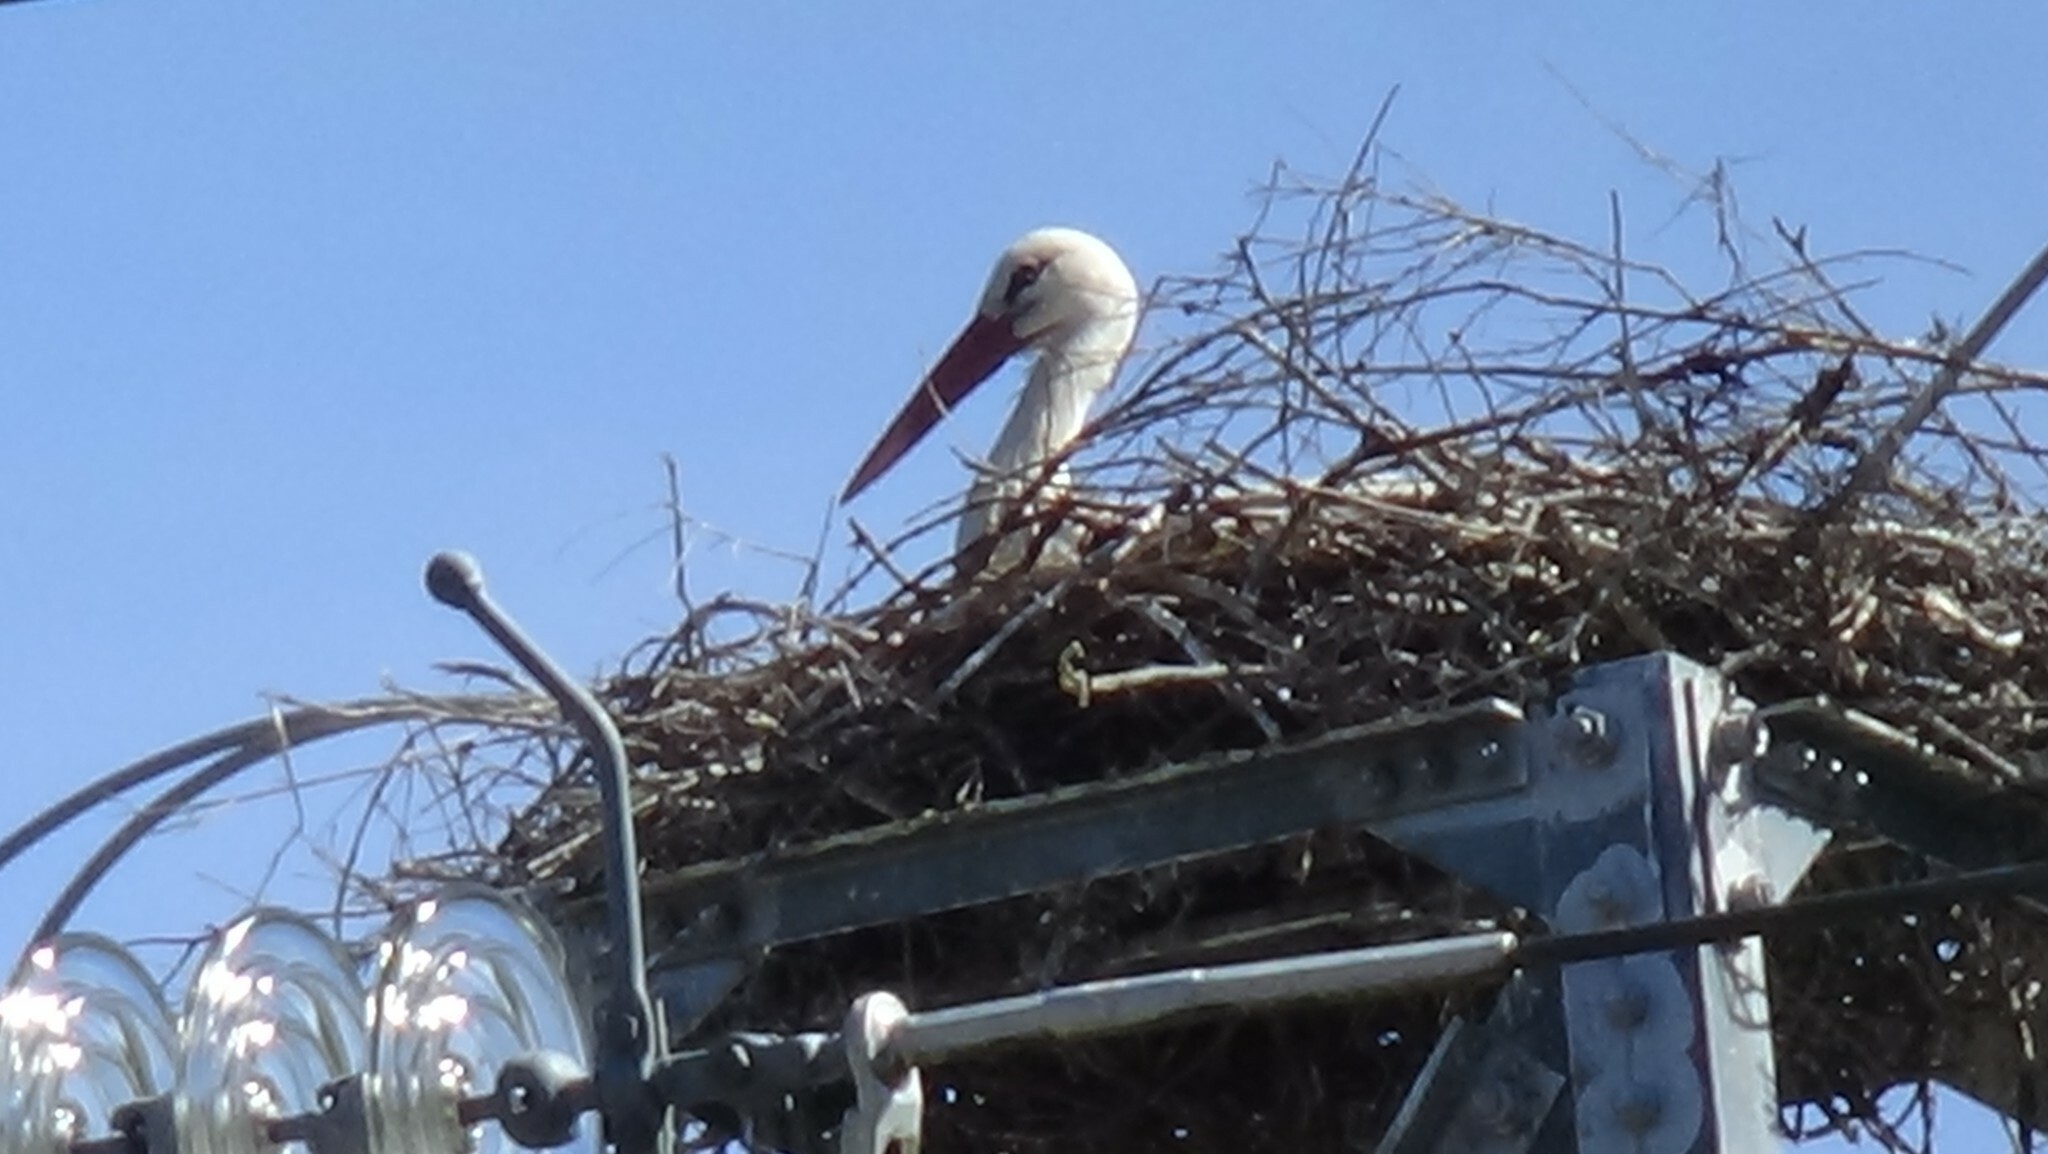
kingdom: Animalia
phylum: Chordata
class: Aves
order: Ciconiiformes
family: Ciconiidae
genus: Ciconia
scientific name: Ciconia ciconia
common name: White stork
